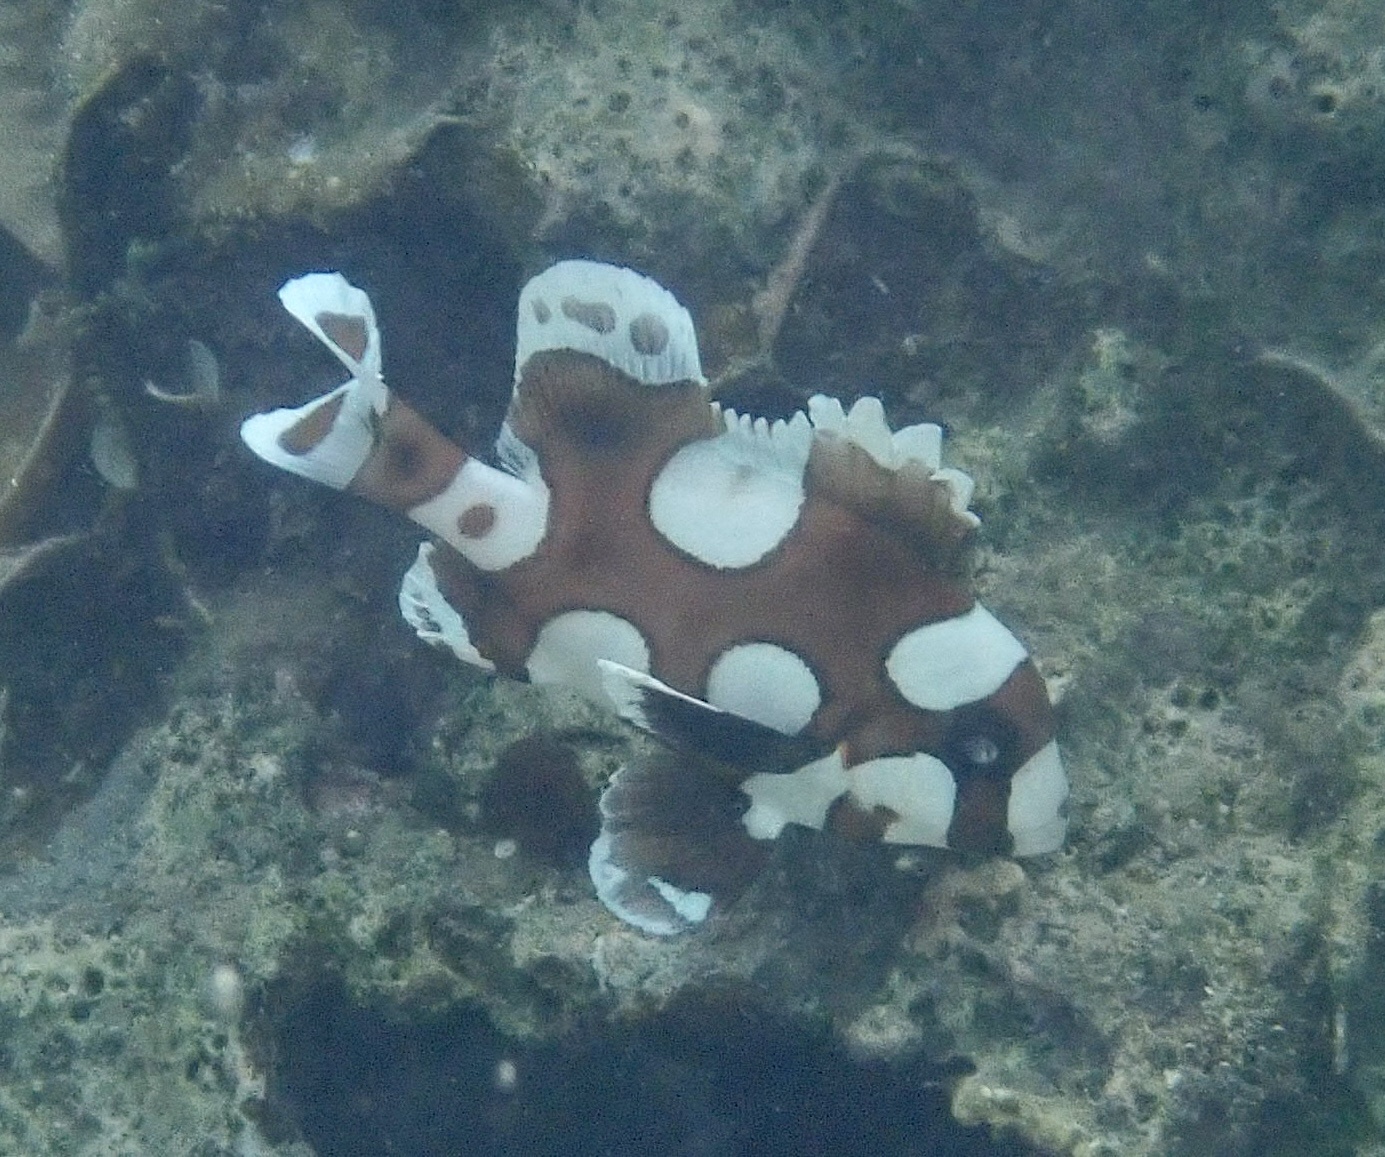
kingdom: Animalia
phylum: Chordata
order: Perciformes
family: Haemulidae
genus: Plectorhinchus
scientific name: Plectorhinchus chaetodonoides
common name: Harlequin sweetlips
